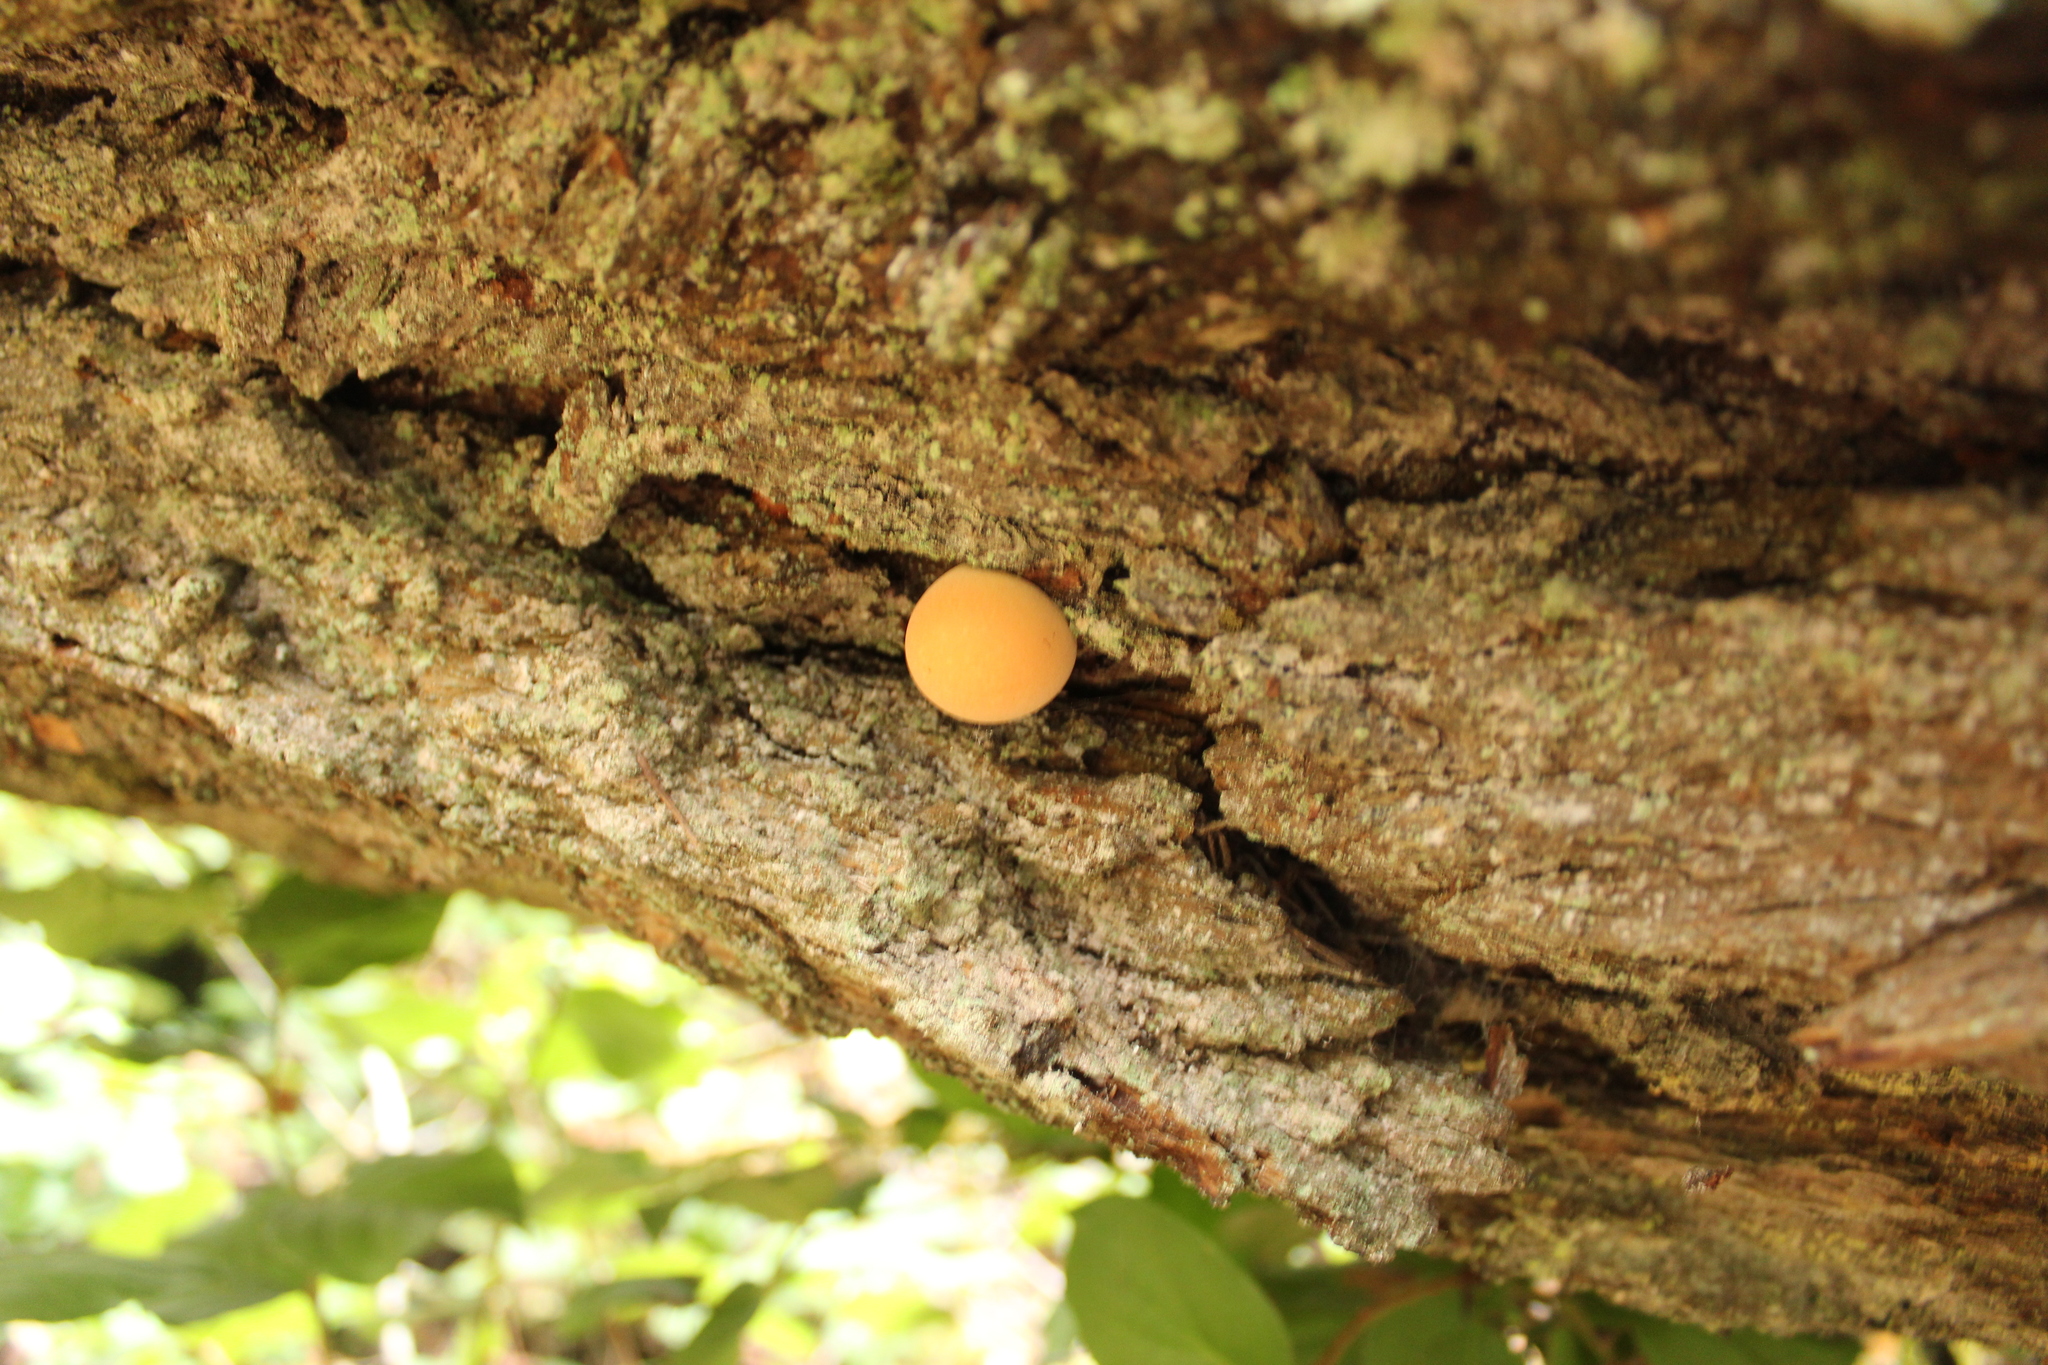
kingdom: Fungi
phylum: Basidiomycota
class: Agaricomycetes
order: Polyporales
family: Polyporaceae
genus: Cryptoporus
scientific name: Cryptoporus volvatus
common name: Veiled polypore
